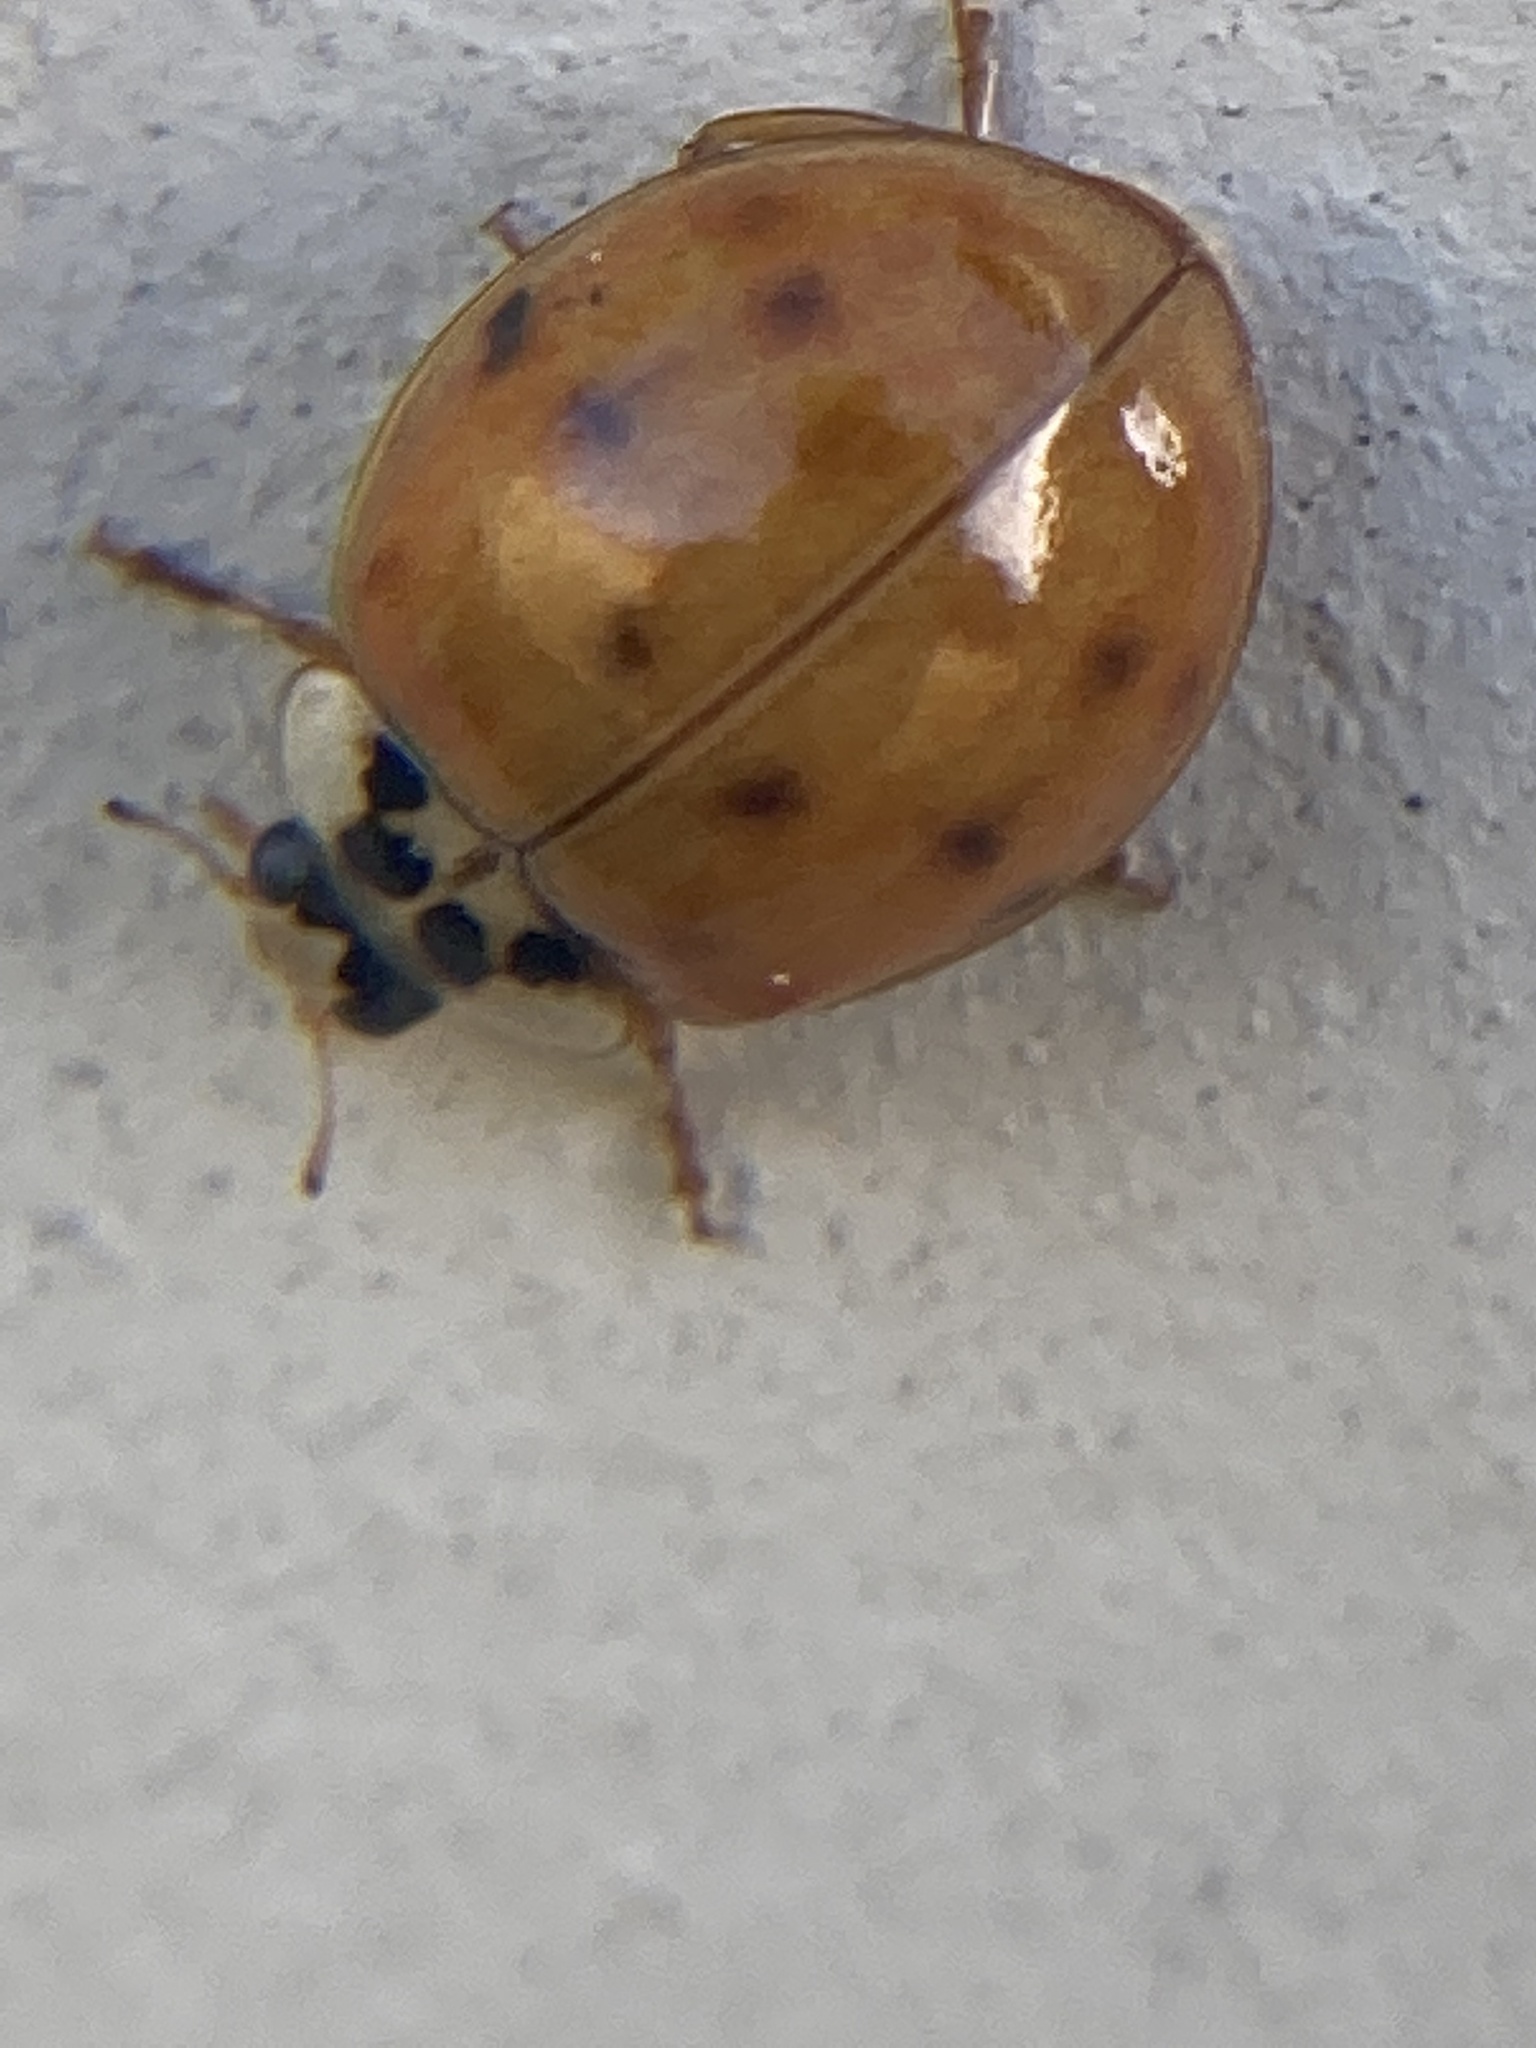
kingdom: Animalia
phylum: Arthropoda
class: Insecta
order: Coleoptera
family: Coccinellidae
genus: Harmonia
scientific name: Harmonia axyridis
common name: Harlequin ladybird
